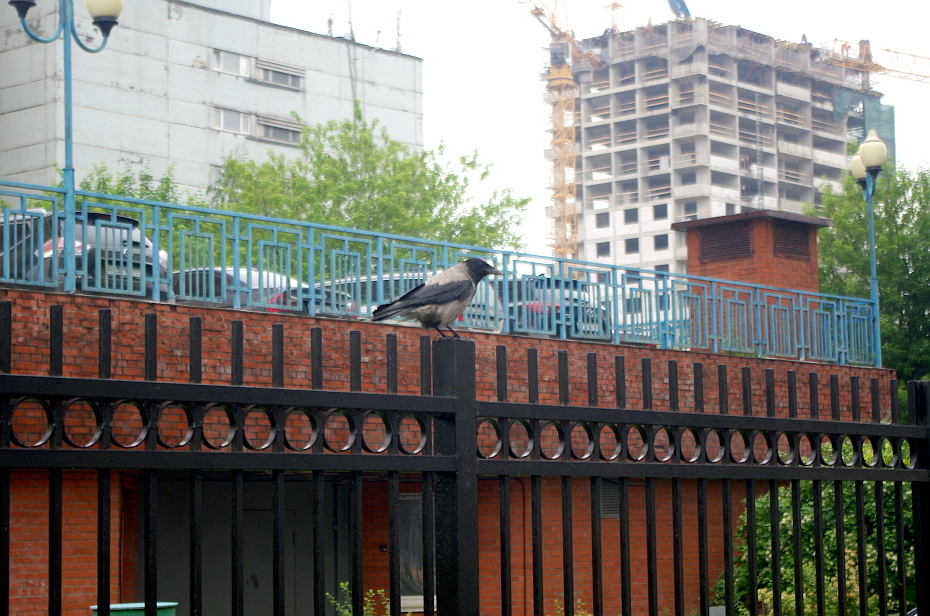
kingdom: Animalia
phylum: Chordata
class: Aves
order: Passeriformes
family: Corvidae
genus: Corvus
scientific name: Corvus cornix
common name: Hooded crow
